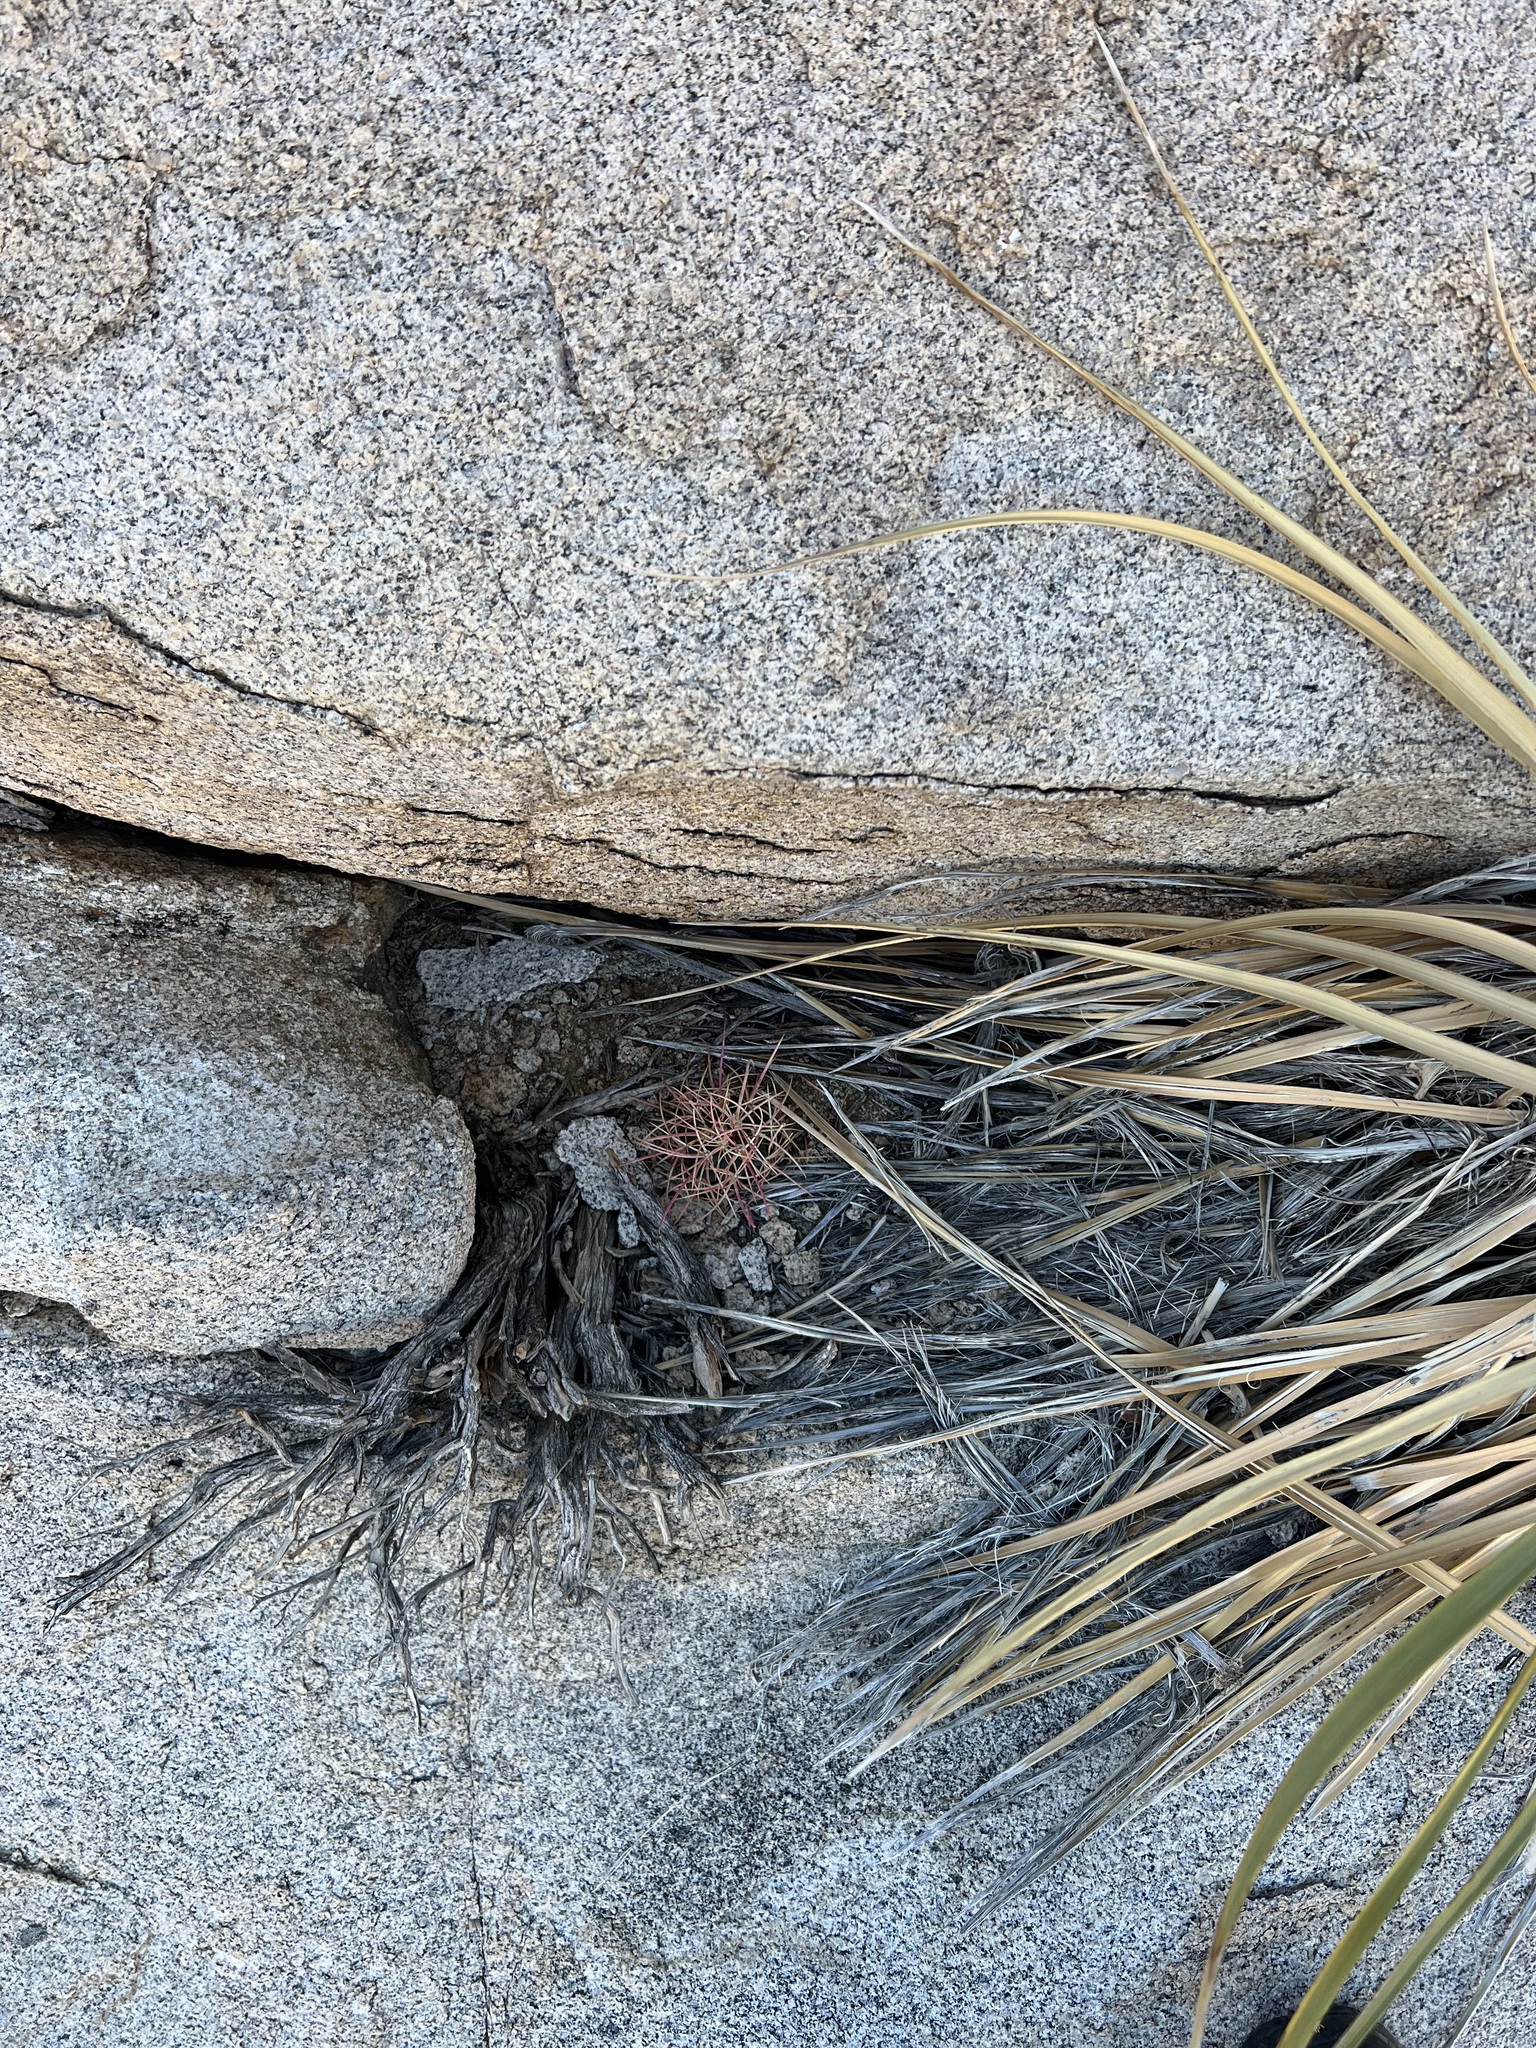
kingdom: Plantae
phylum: Tracheophyta
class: Magnoliopsida
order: Caryophyllales
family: Cactaceae
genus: Ferocactus
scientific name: Ferocactus cylindraceus
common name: California barrel cactus
